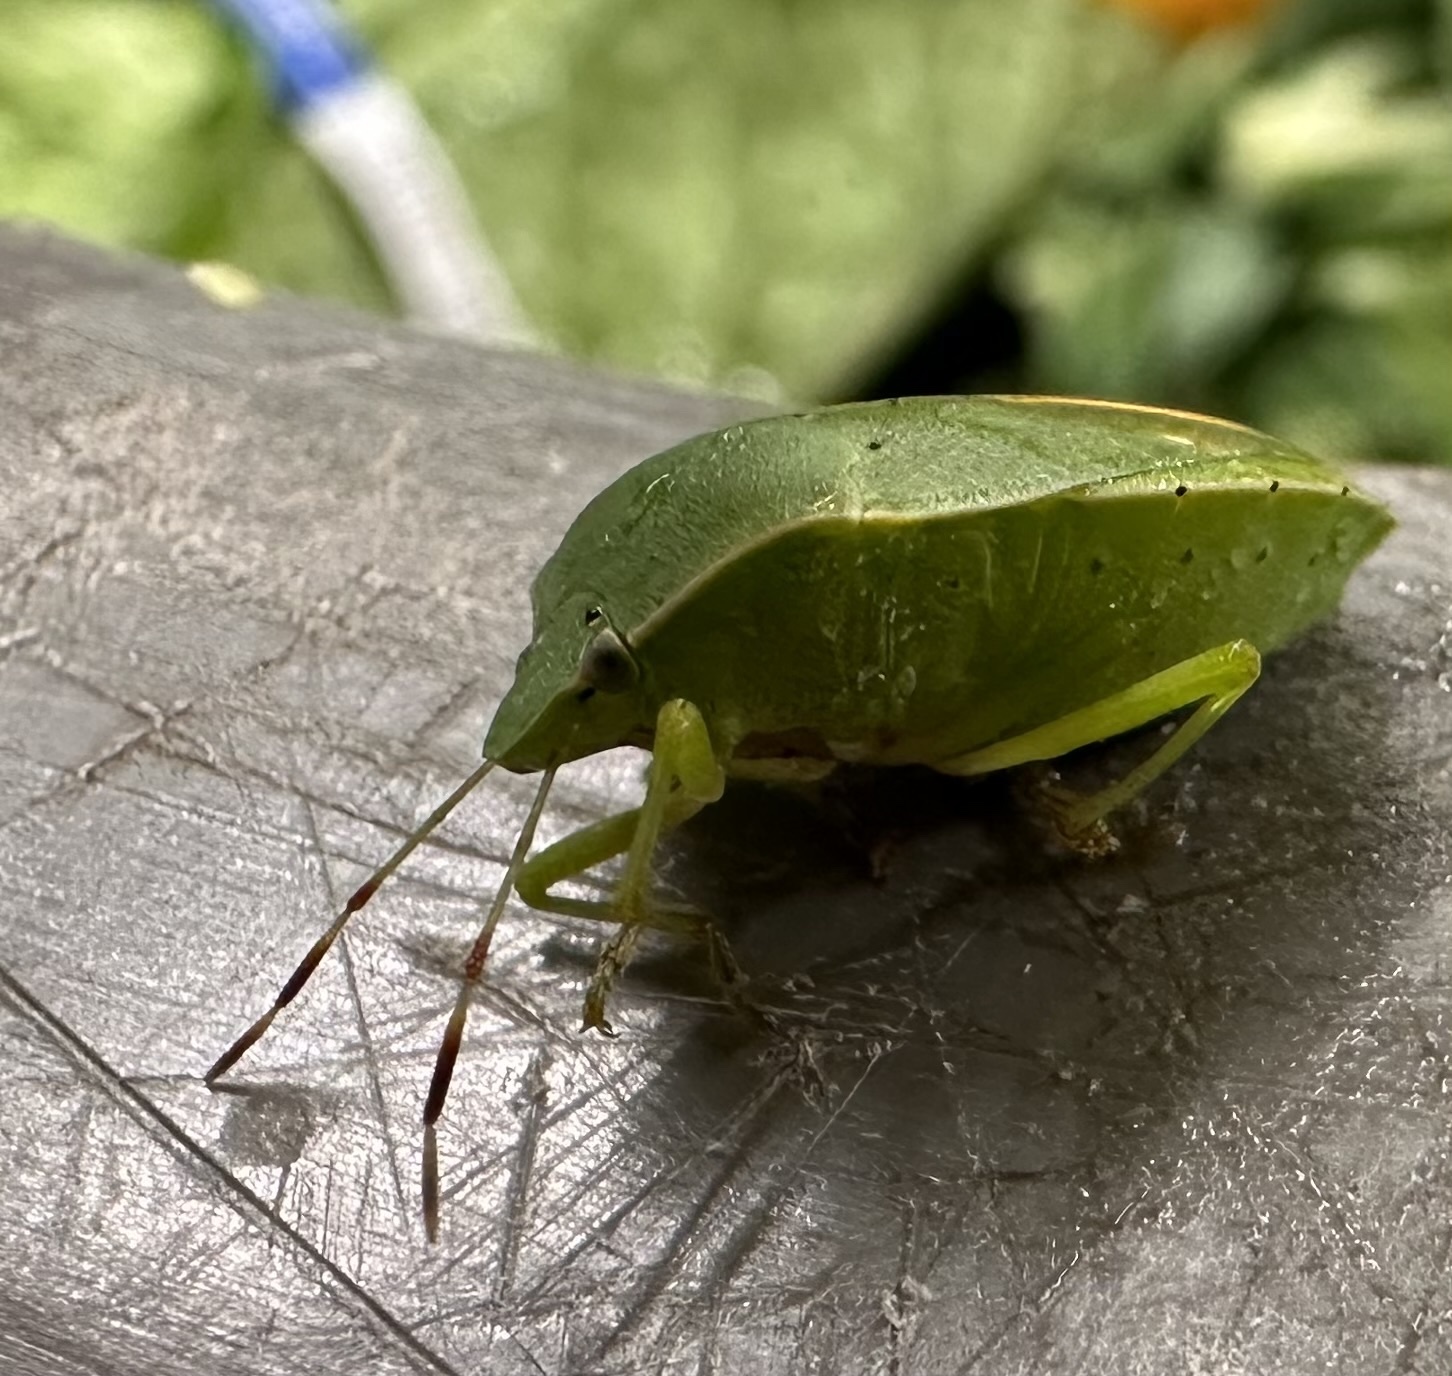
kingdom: Animalia
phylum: Arthropoda
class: Insecta
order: Hemiptera
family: Pentatomidae
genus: Nezara
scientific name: Nezara viridula
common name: Southern green stink bug
